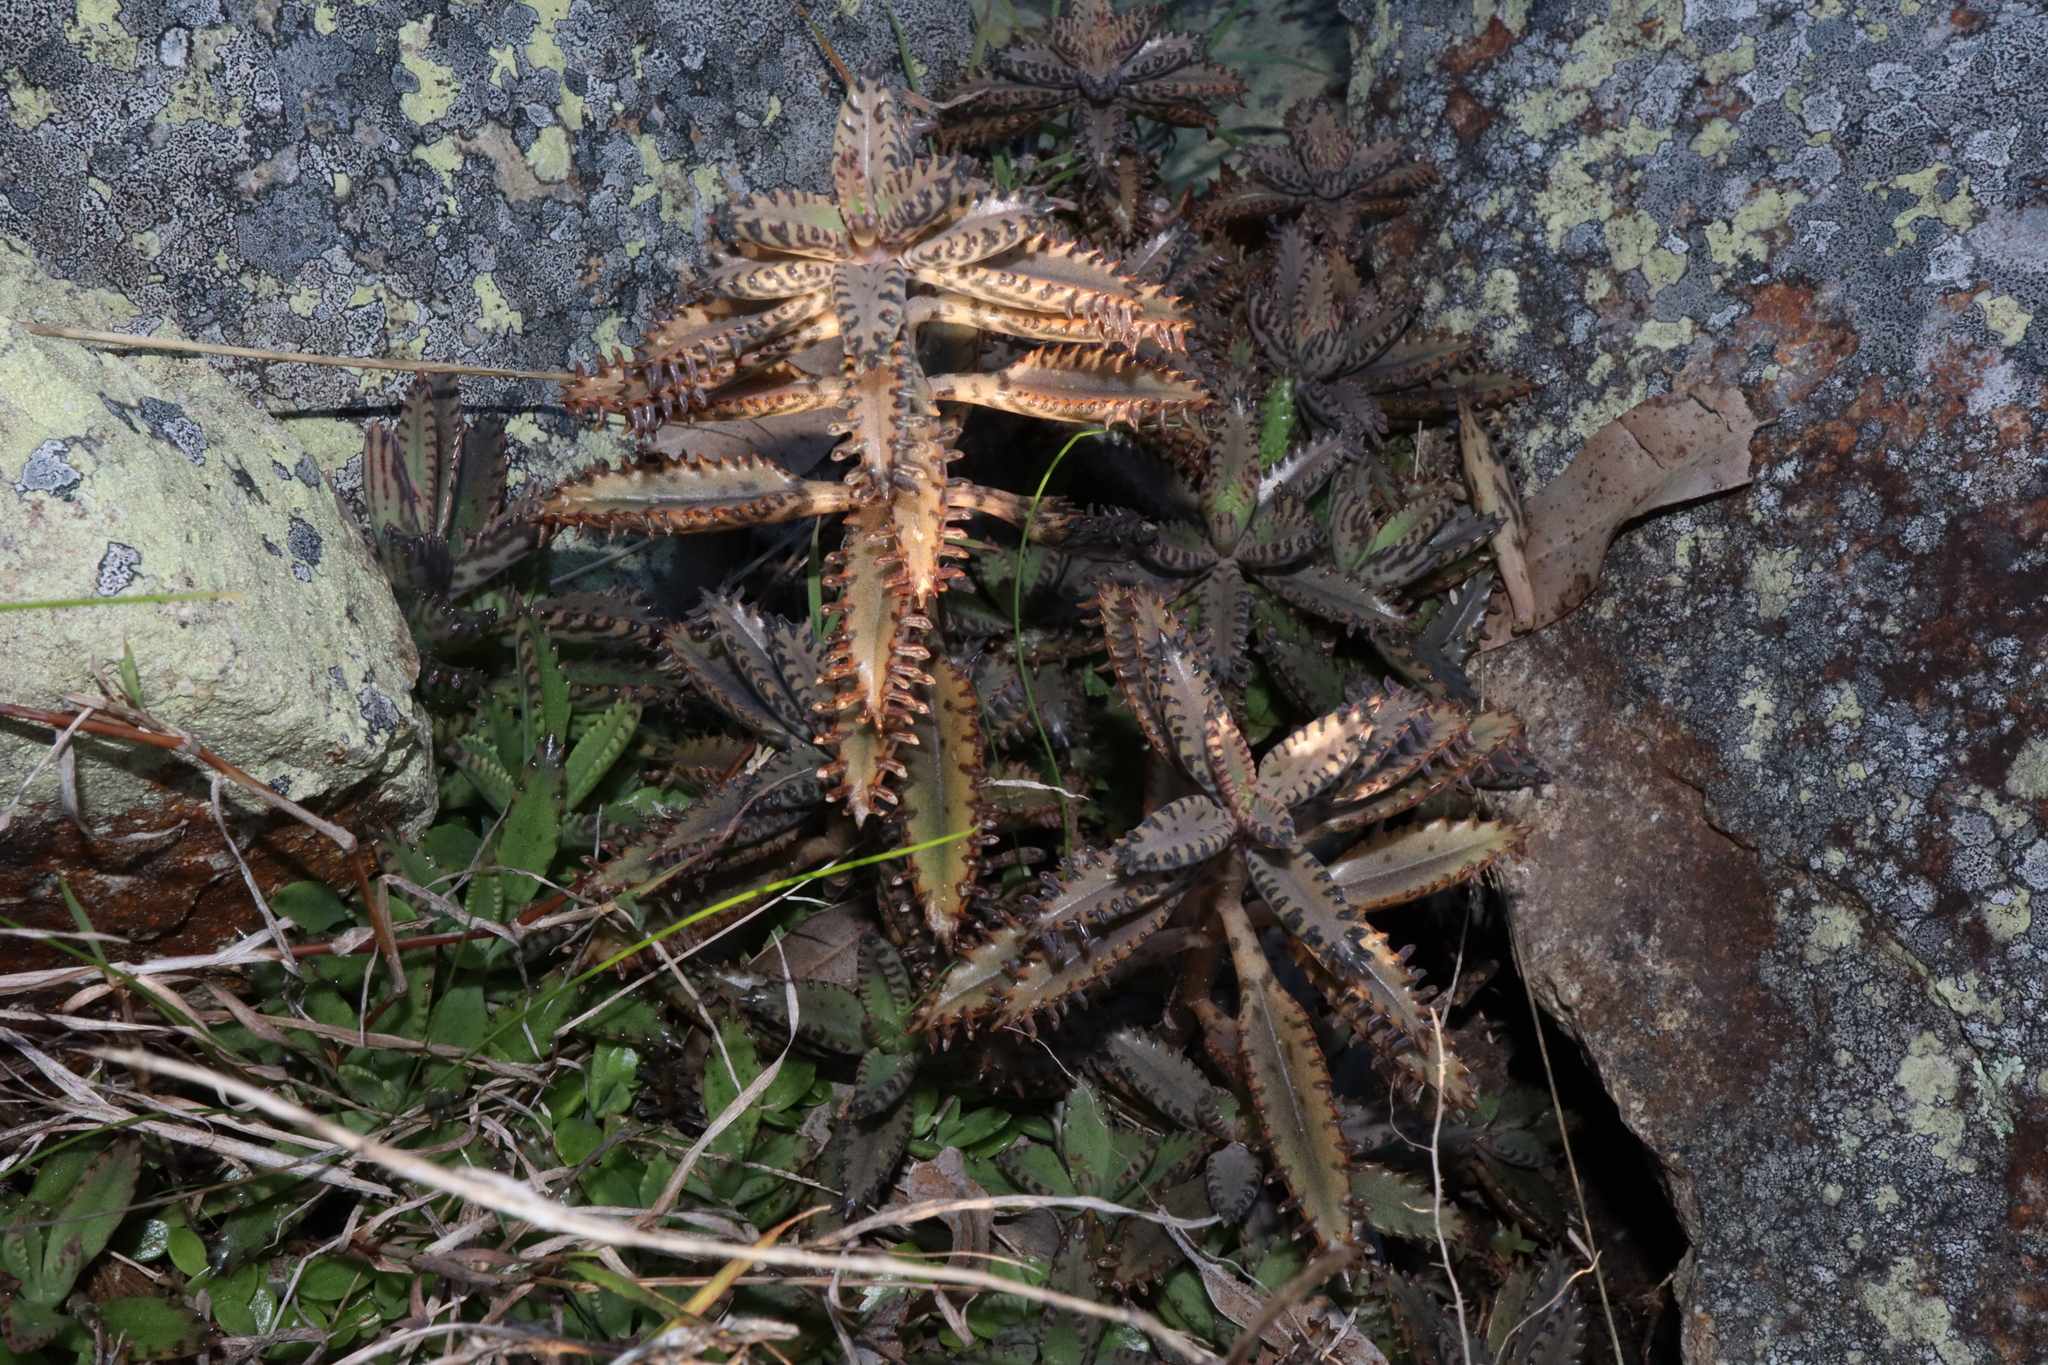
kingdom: Plantae
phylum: Tracheophyta
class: Magnoliopsida
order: Saxifragales
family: Crassulaceae
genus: Kalanchoe
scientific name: Kalanchoe houghtonii
